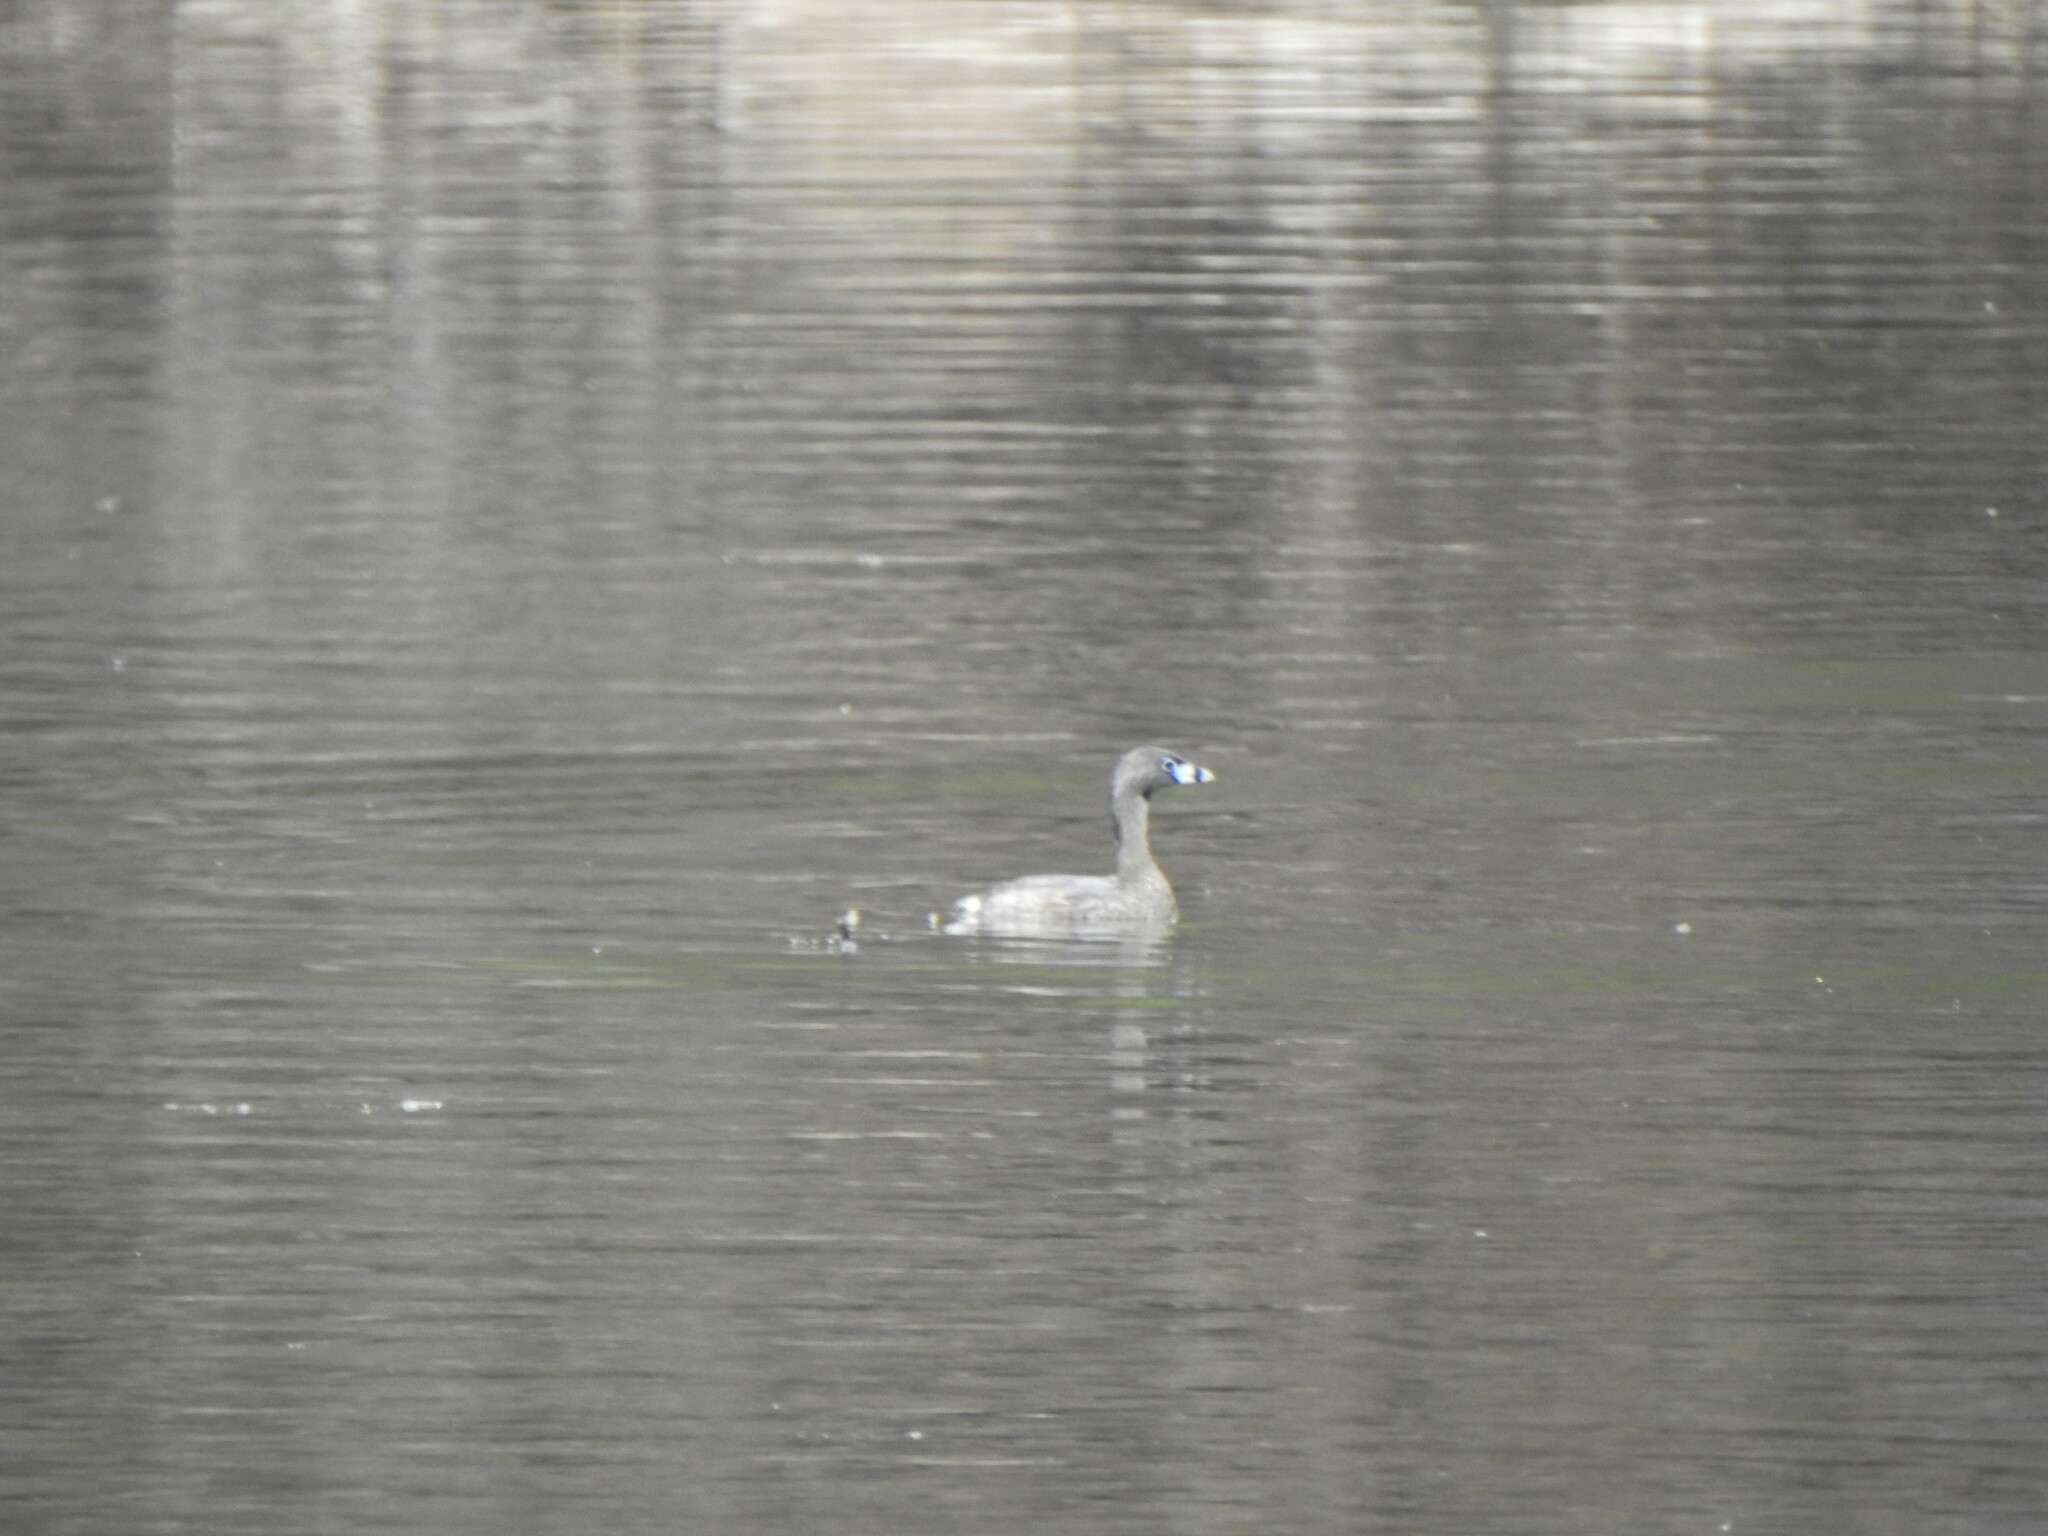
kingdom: Animalia
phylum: Chordata
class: Aves
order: Podicipediformes
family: Podicipedidae
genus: Podilymbus
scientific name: Podilymbus podiceps
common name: Pied-billed grebe
